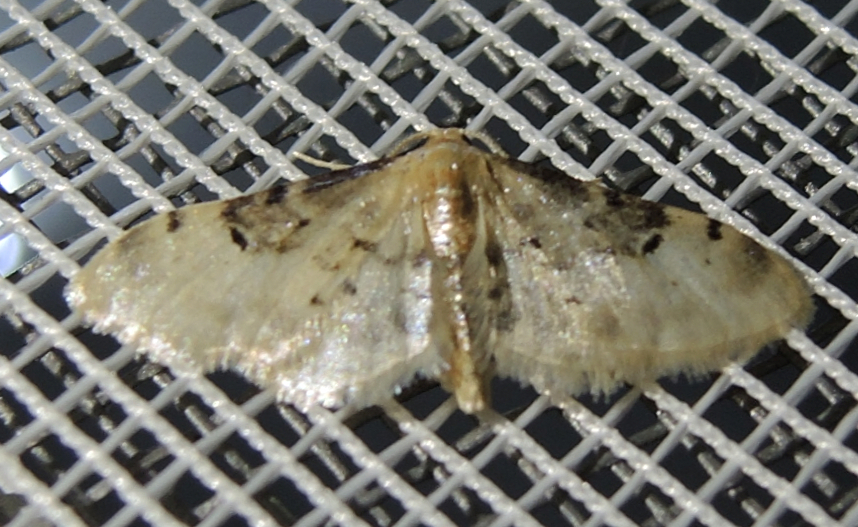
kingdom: Animalia
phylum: Arthropoda
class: Insecta
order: Lepidoptera
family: Geometridae
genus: Idaea
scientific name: Idaea filicata
